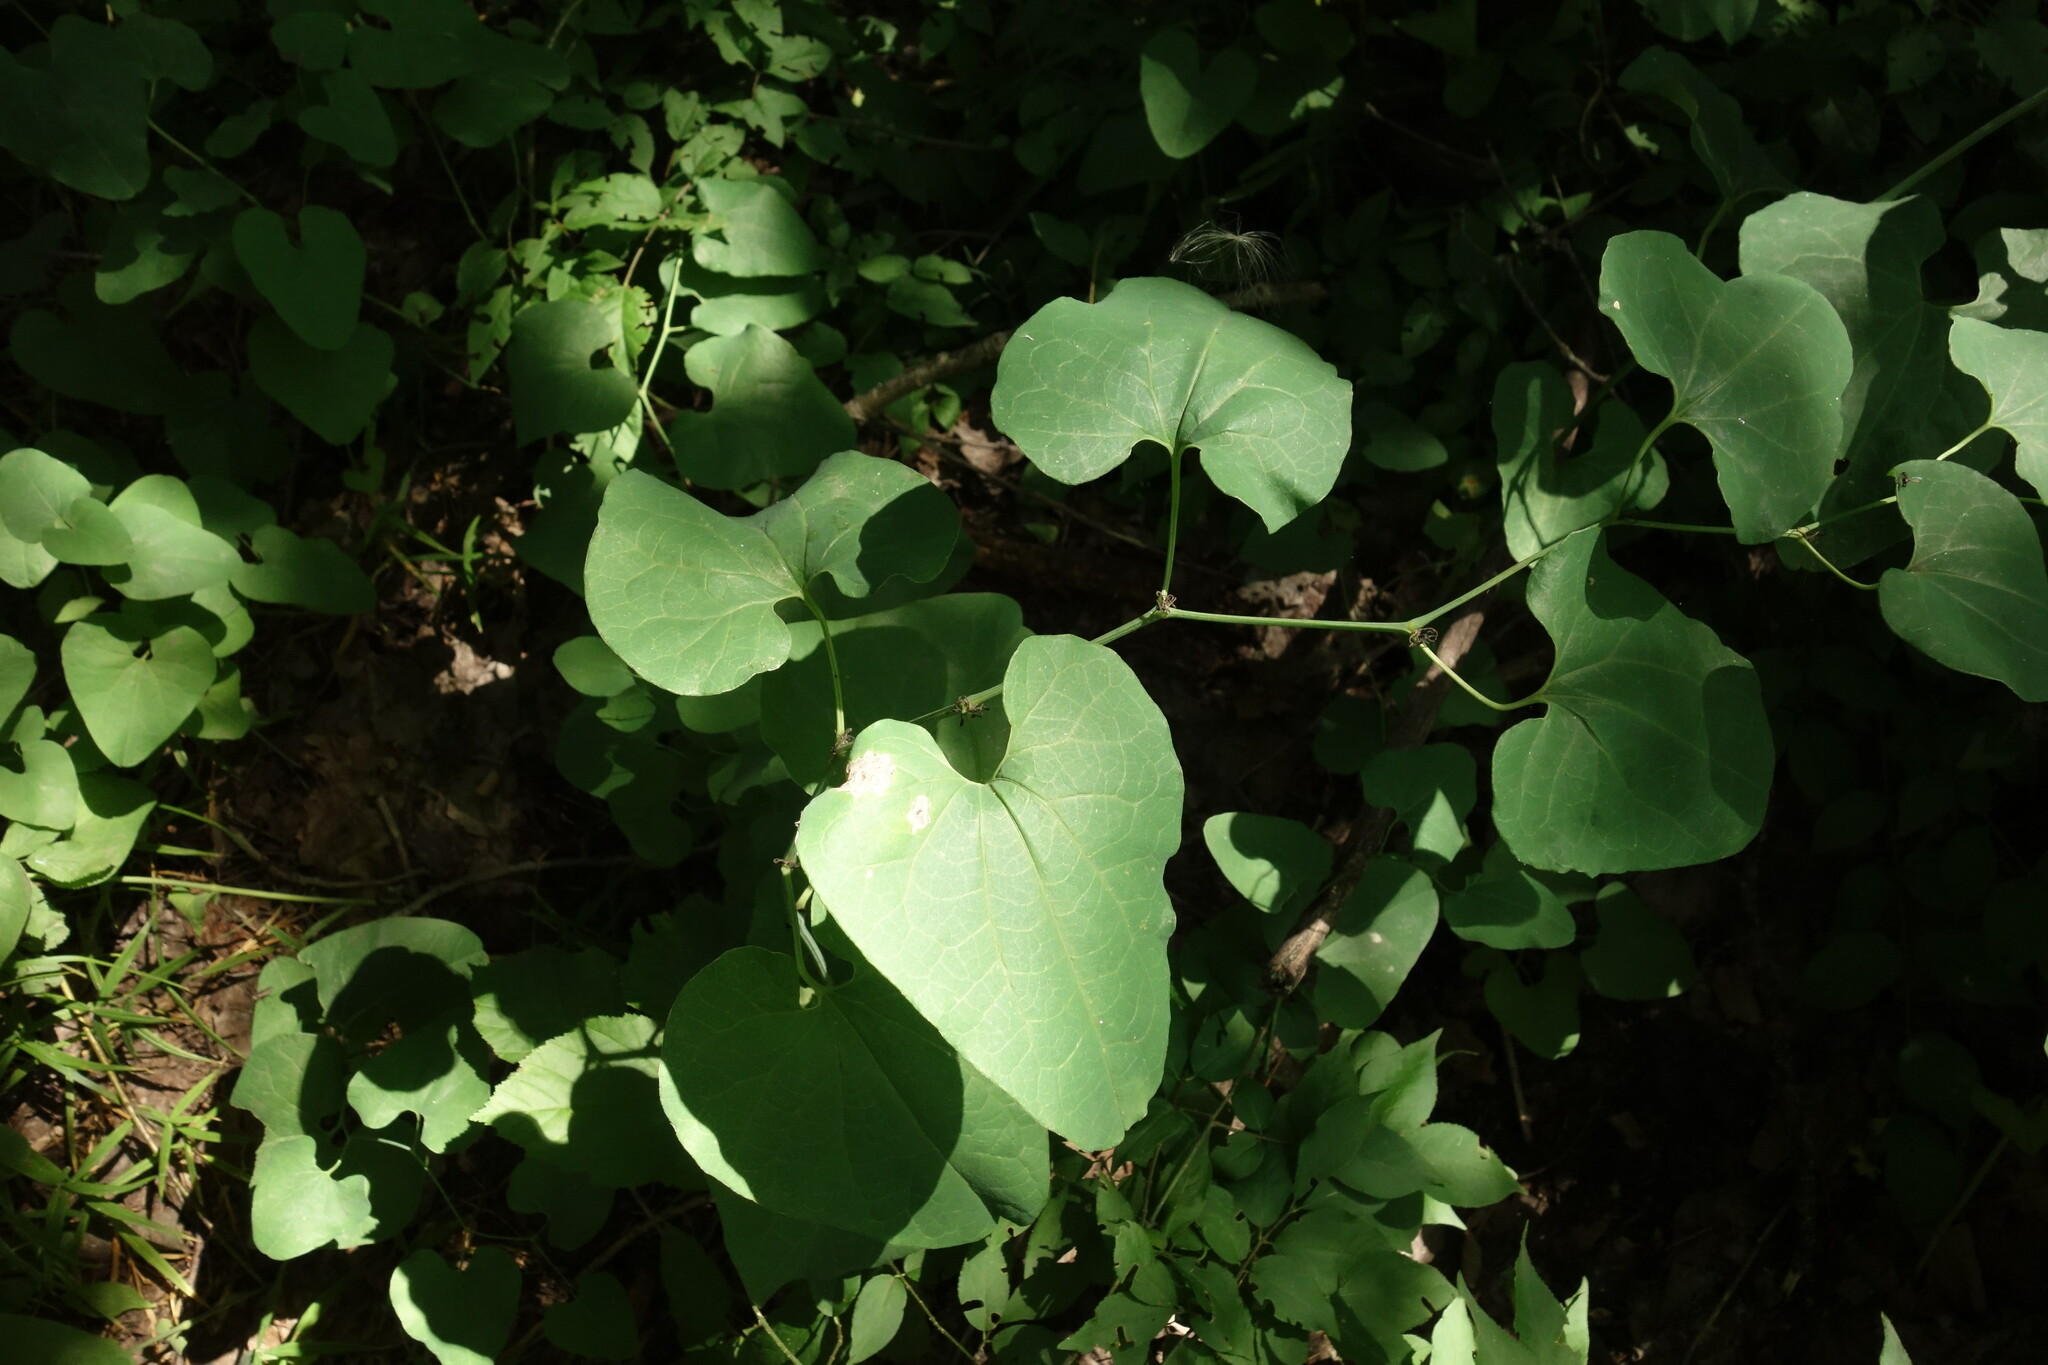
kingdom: Plantae
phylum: Tracheophyta
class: Magnoliopsida
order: Piperales
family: Aristolochiaceae
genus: Aristolochia
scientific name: Aristolochia clematitis
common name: Birthwort
